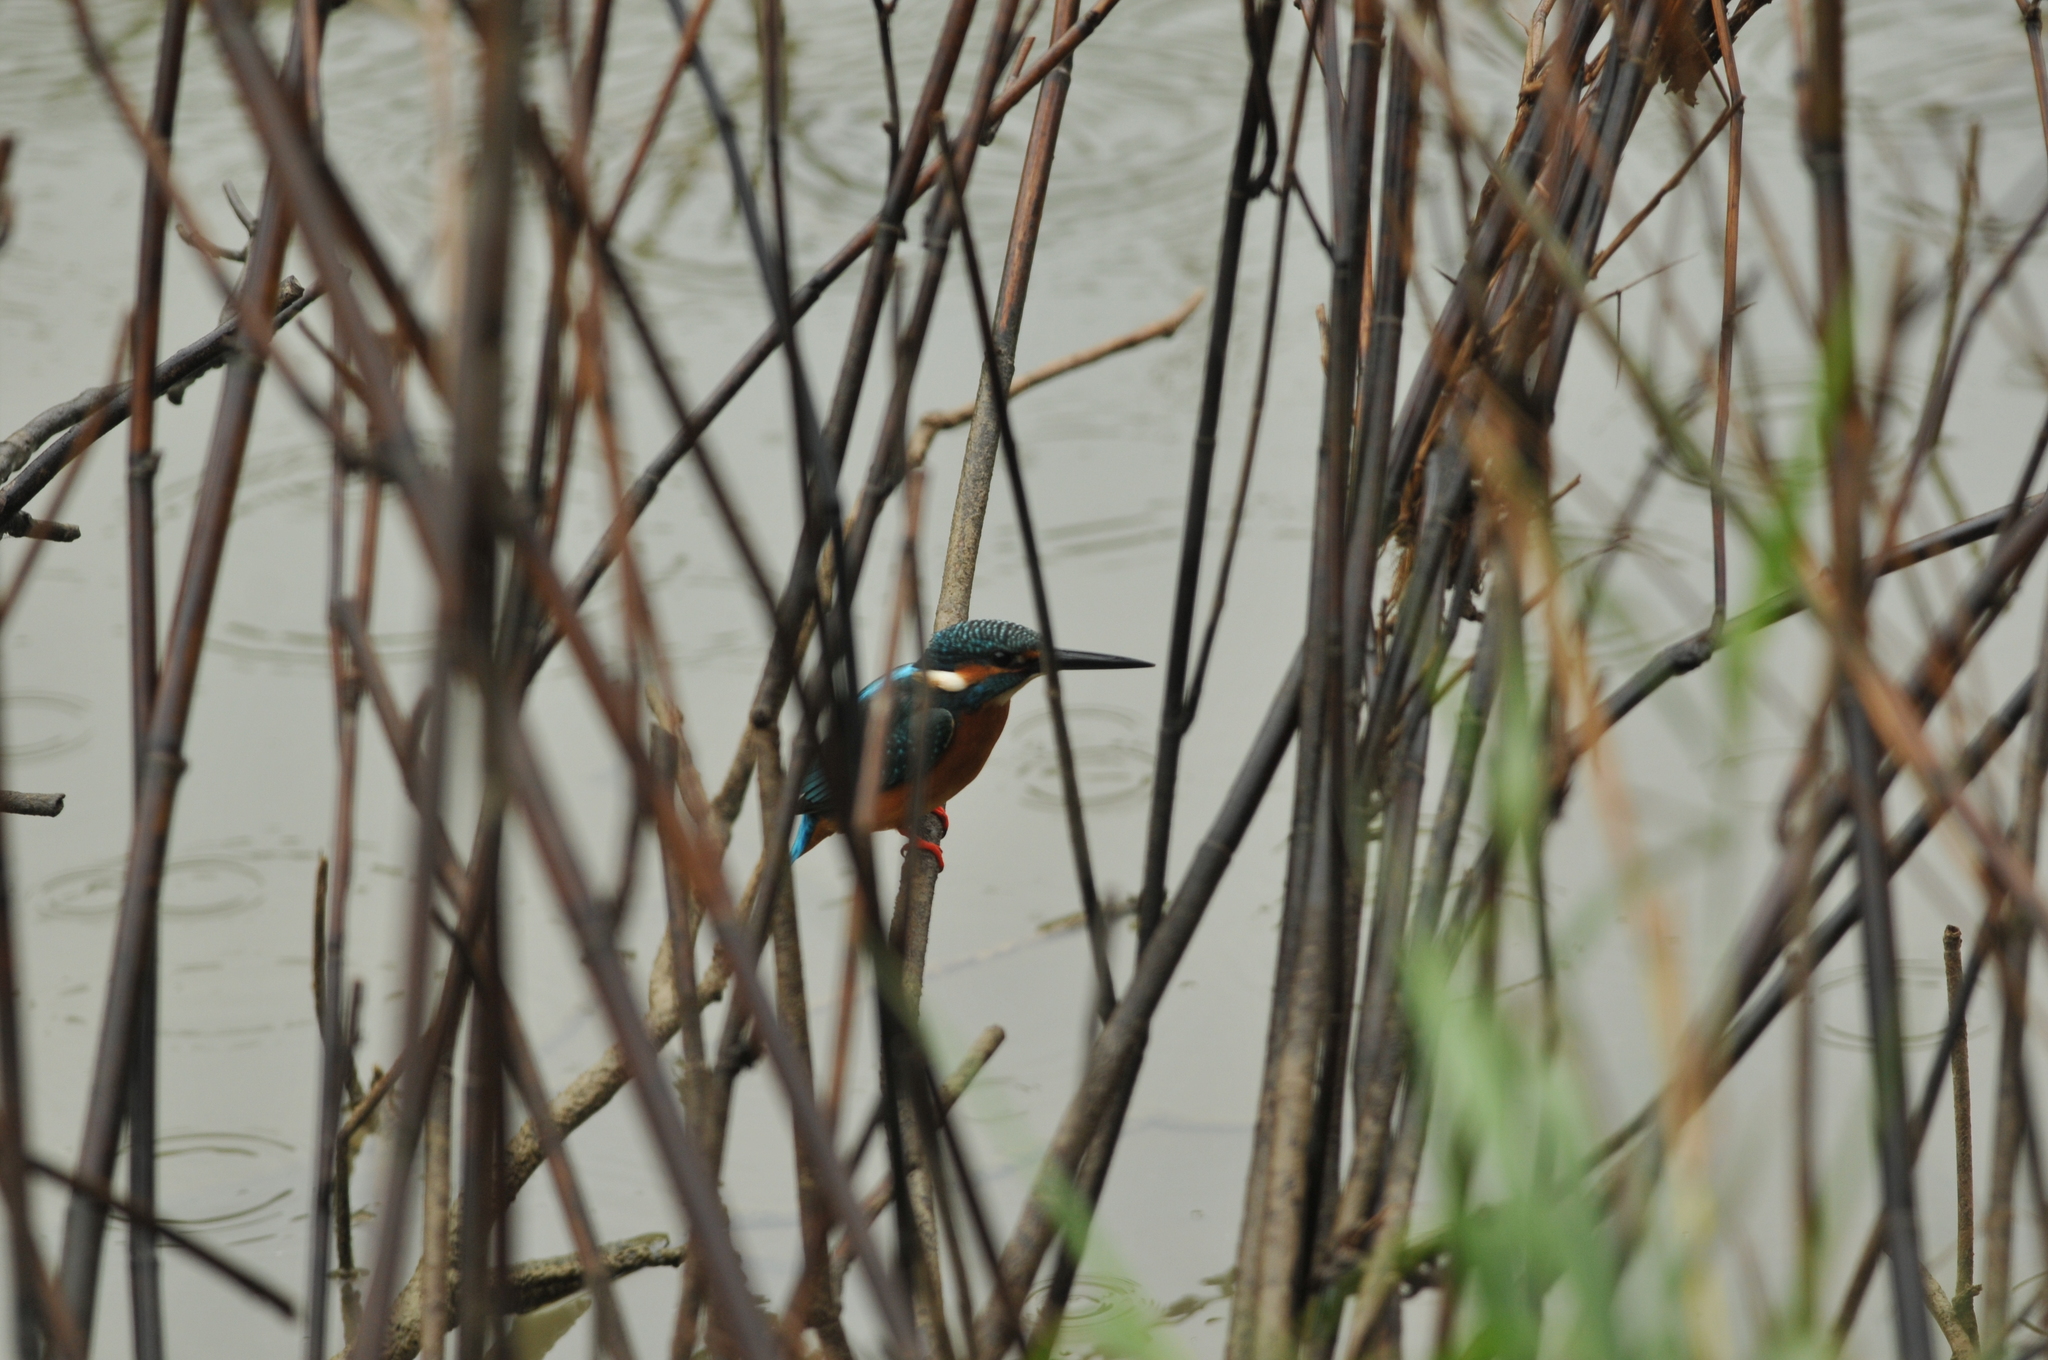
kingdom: Animalia
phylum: Chordata
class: Aves
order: Coraciiformes
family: Alcedinidae
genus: Alcedo
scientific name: Alcedo atthis
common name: Common kingfisher
